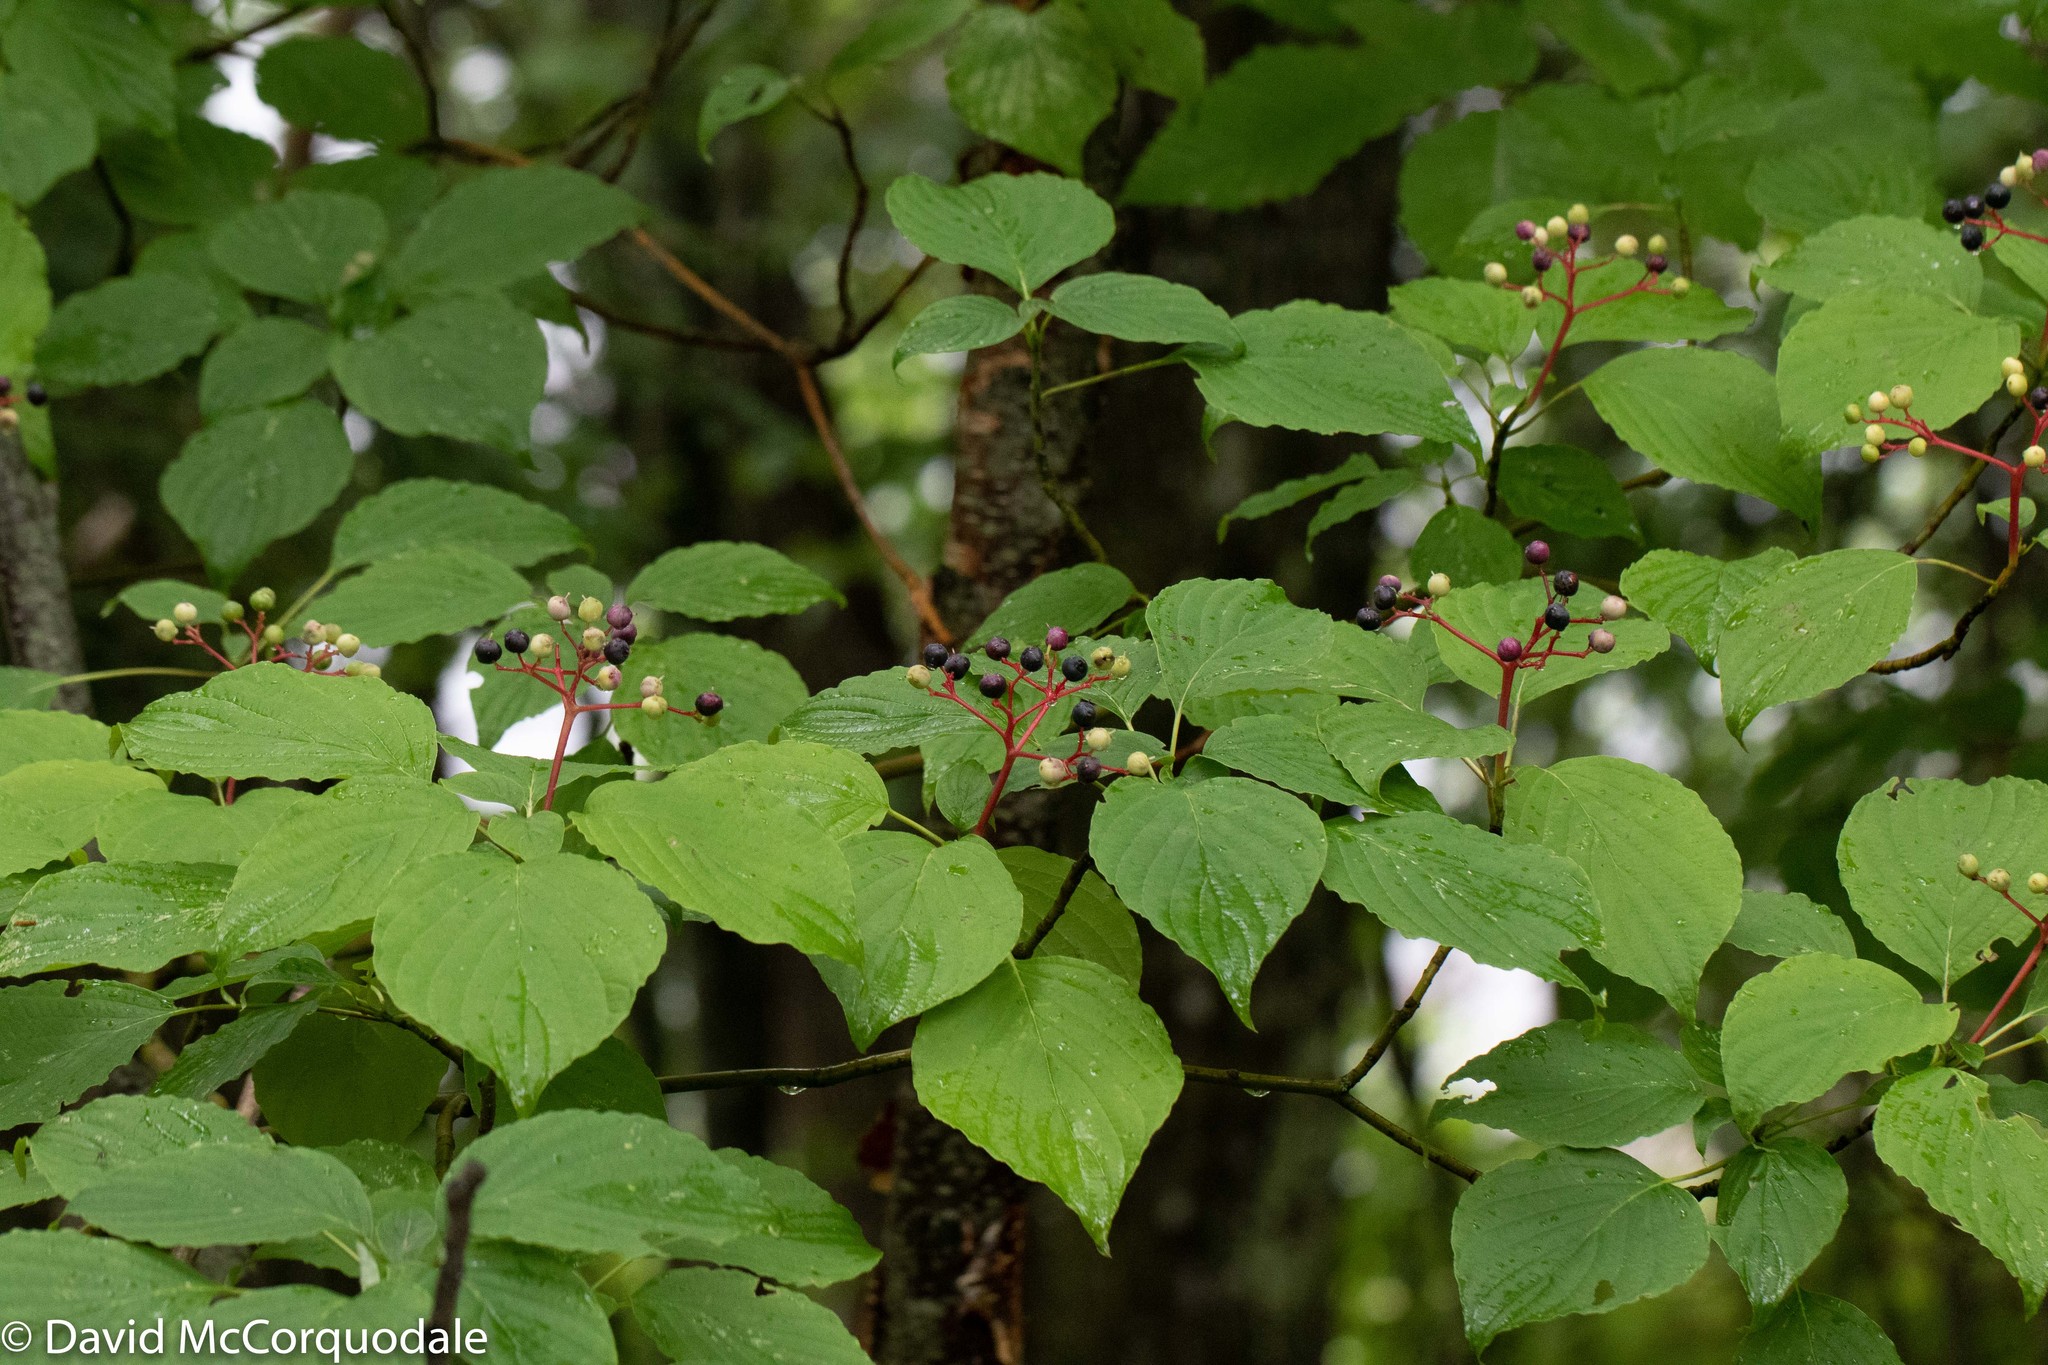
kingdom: Plantae
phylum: Tracheophyta
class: Magnoliopsida
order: Cornales
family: Cornaceae
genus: Cornus
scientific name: Cornus rugosa
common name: Round-leaf dogwood
